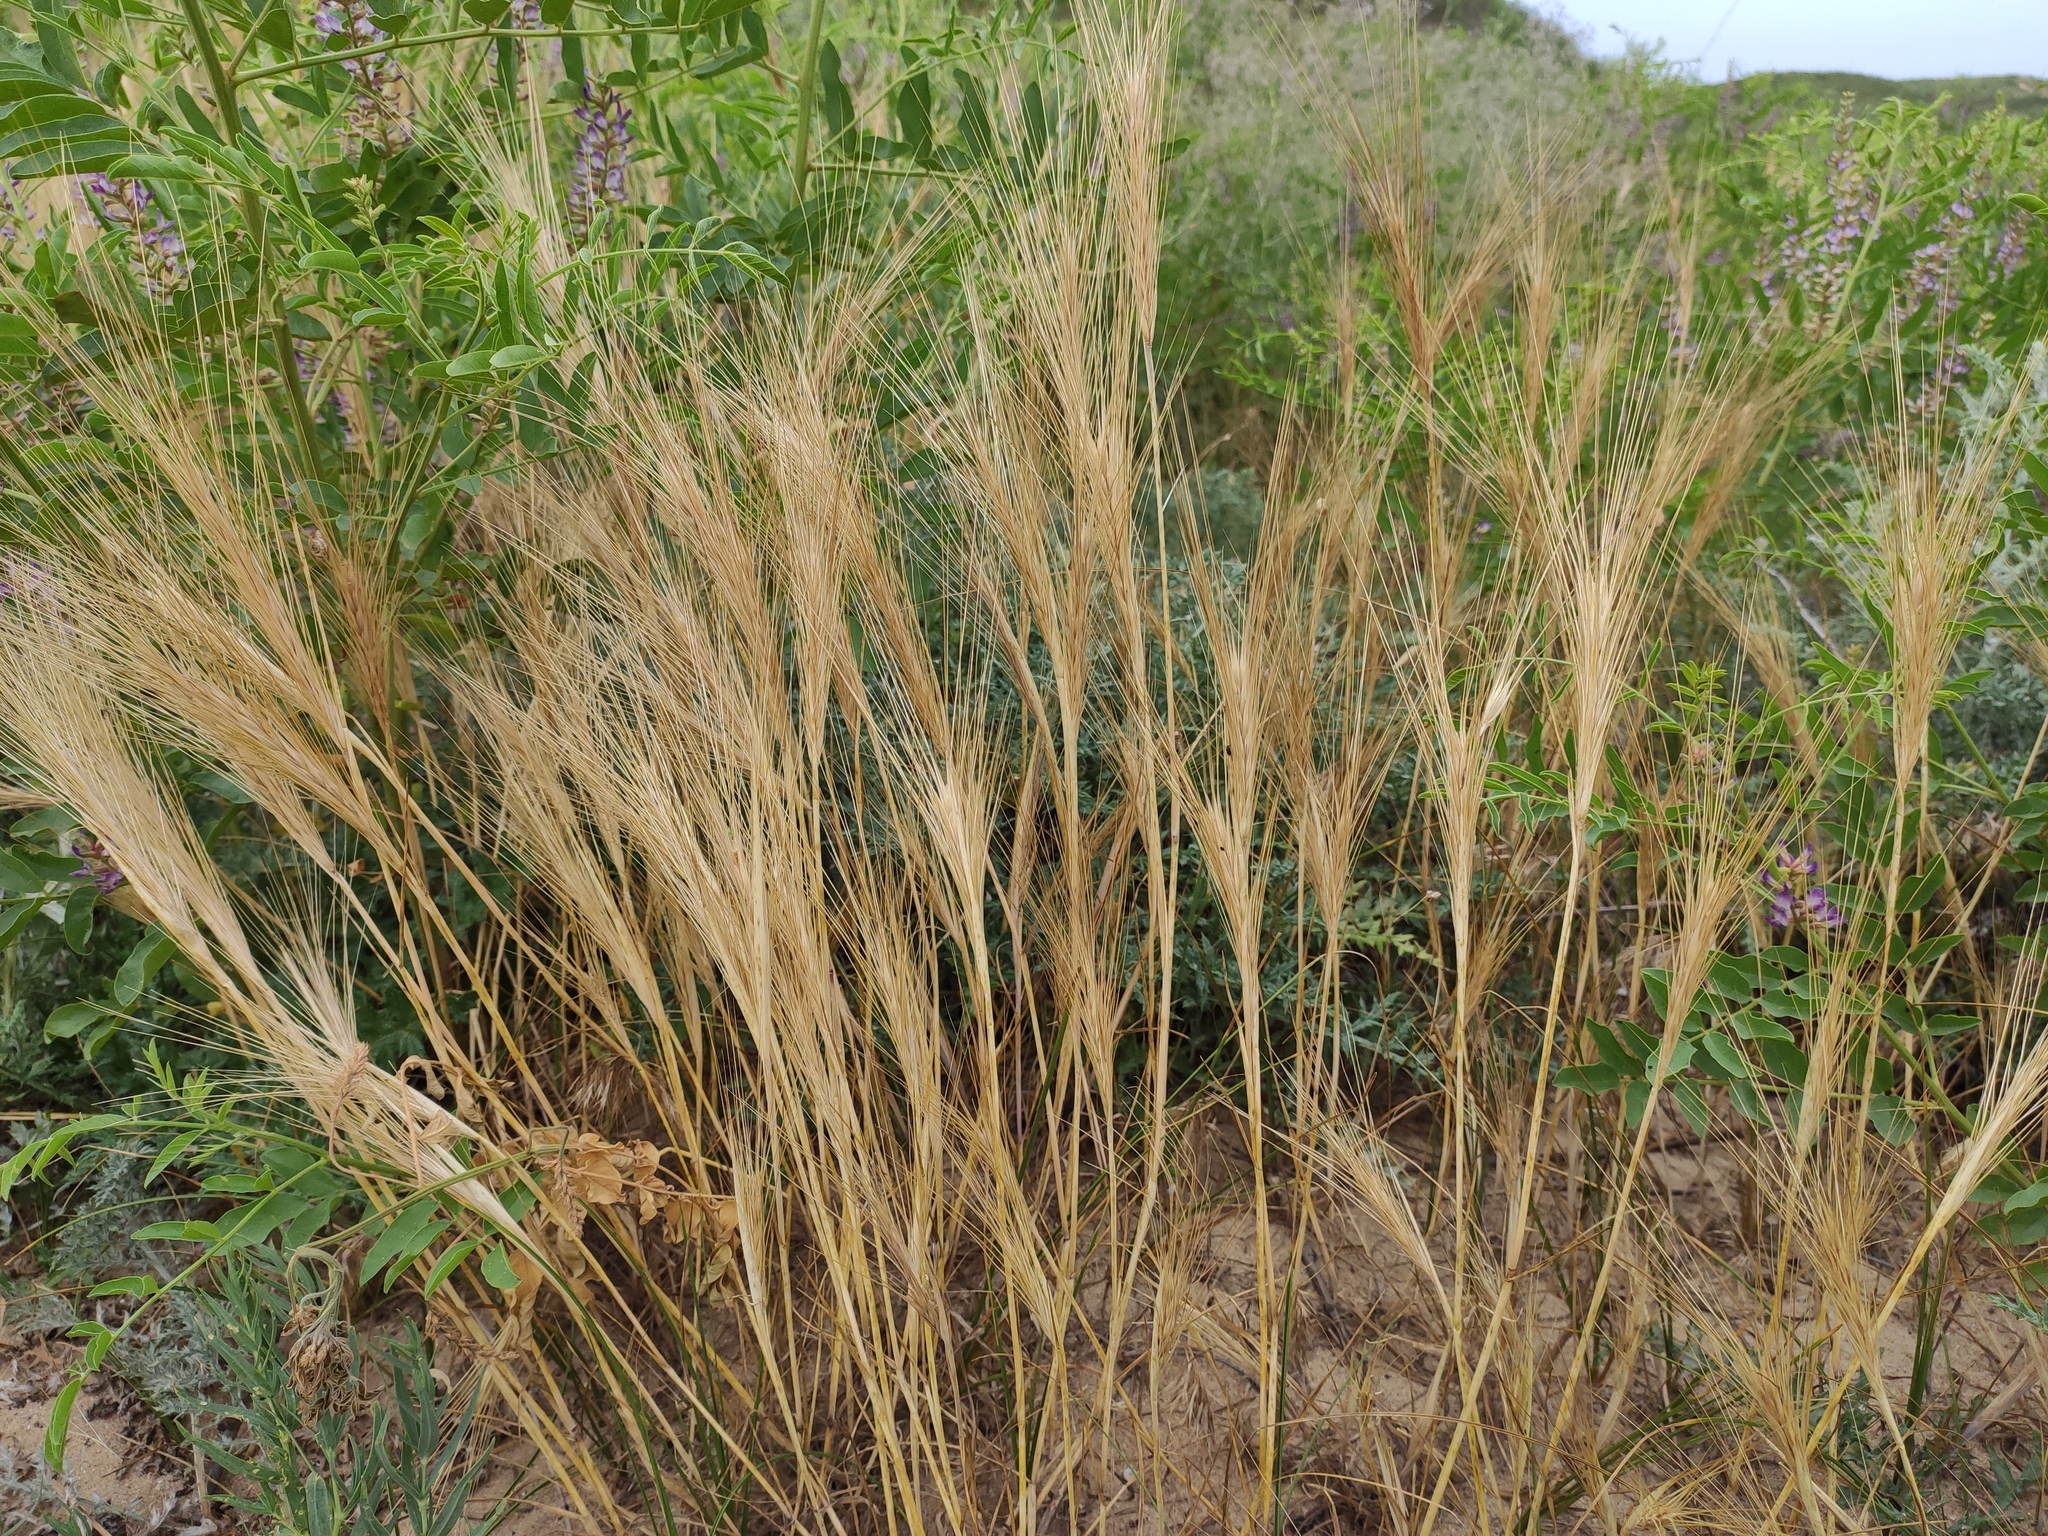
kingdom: Plantae
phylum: Tracheophyta
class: Liliopsida
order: Poales
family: Poaceae
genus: Secale
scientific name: Secale sylvestre
